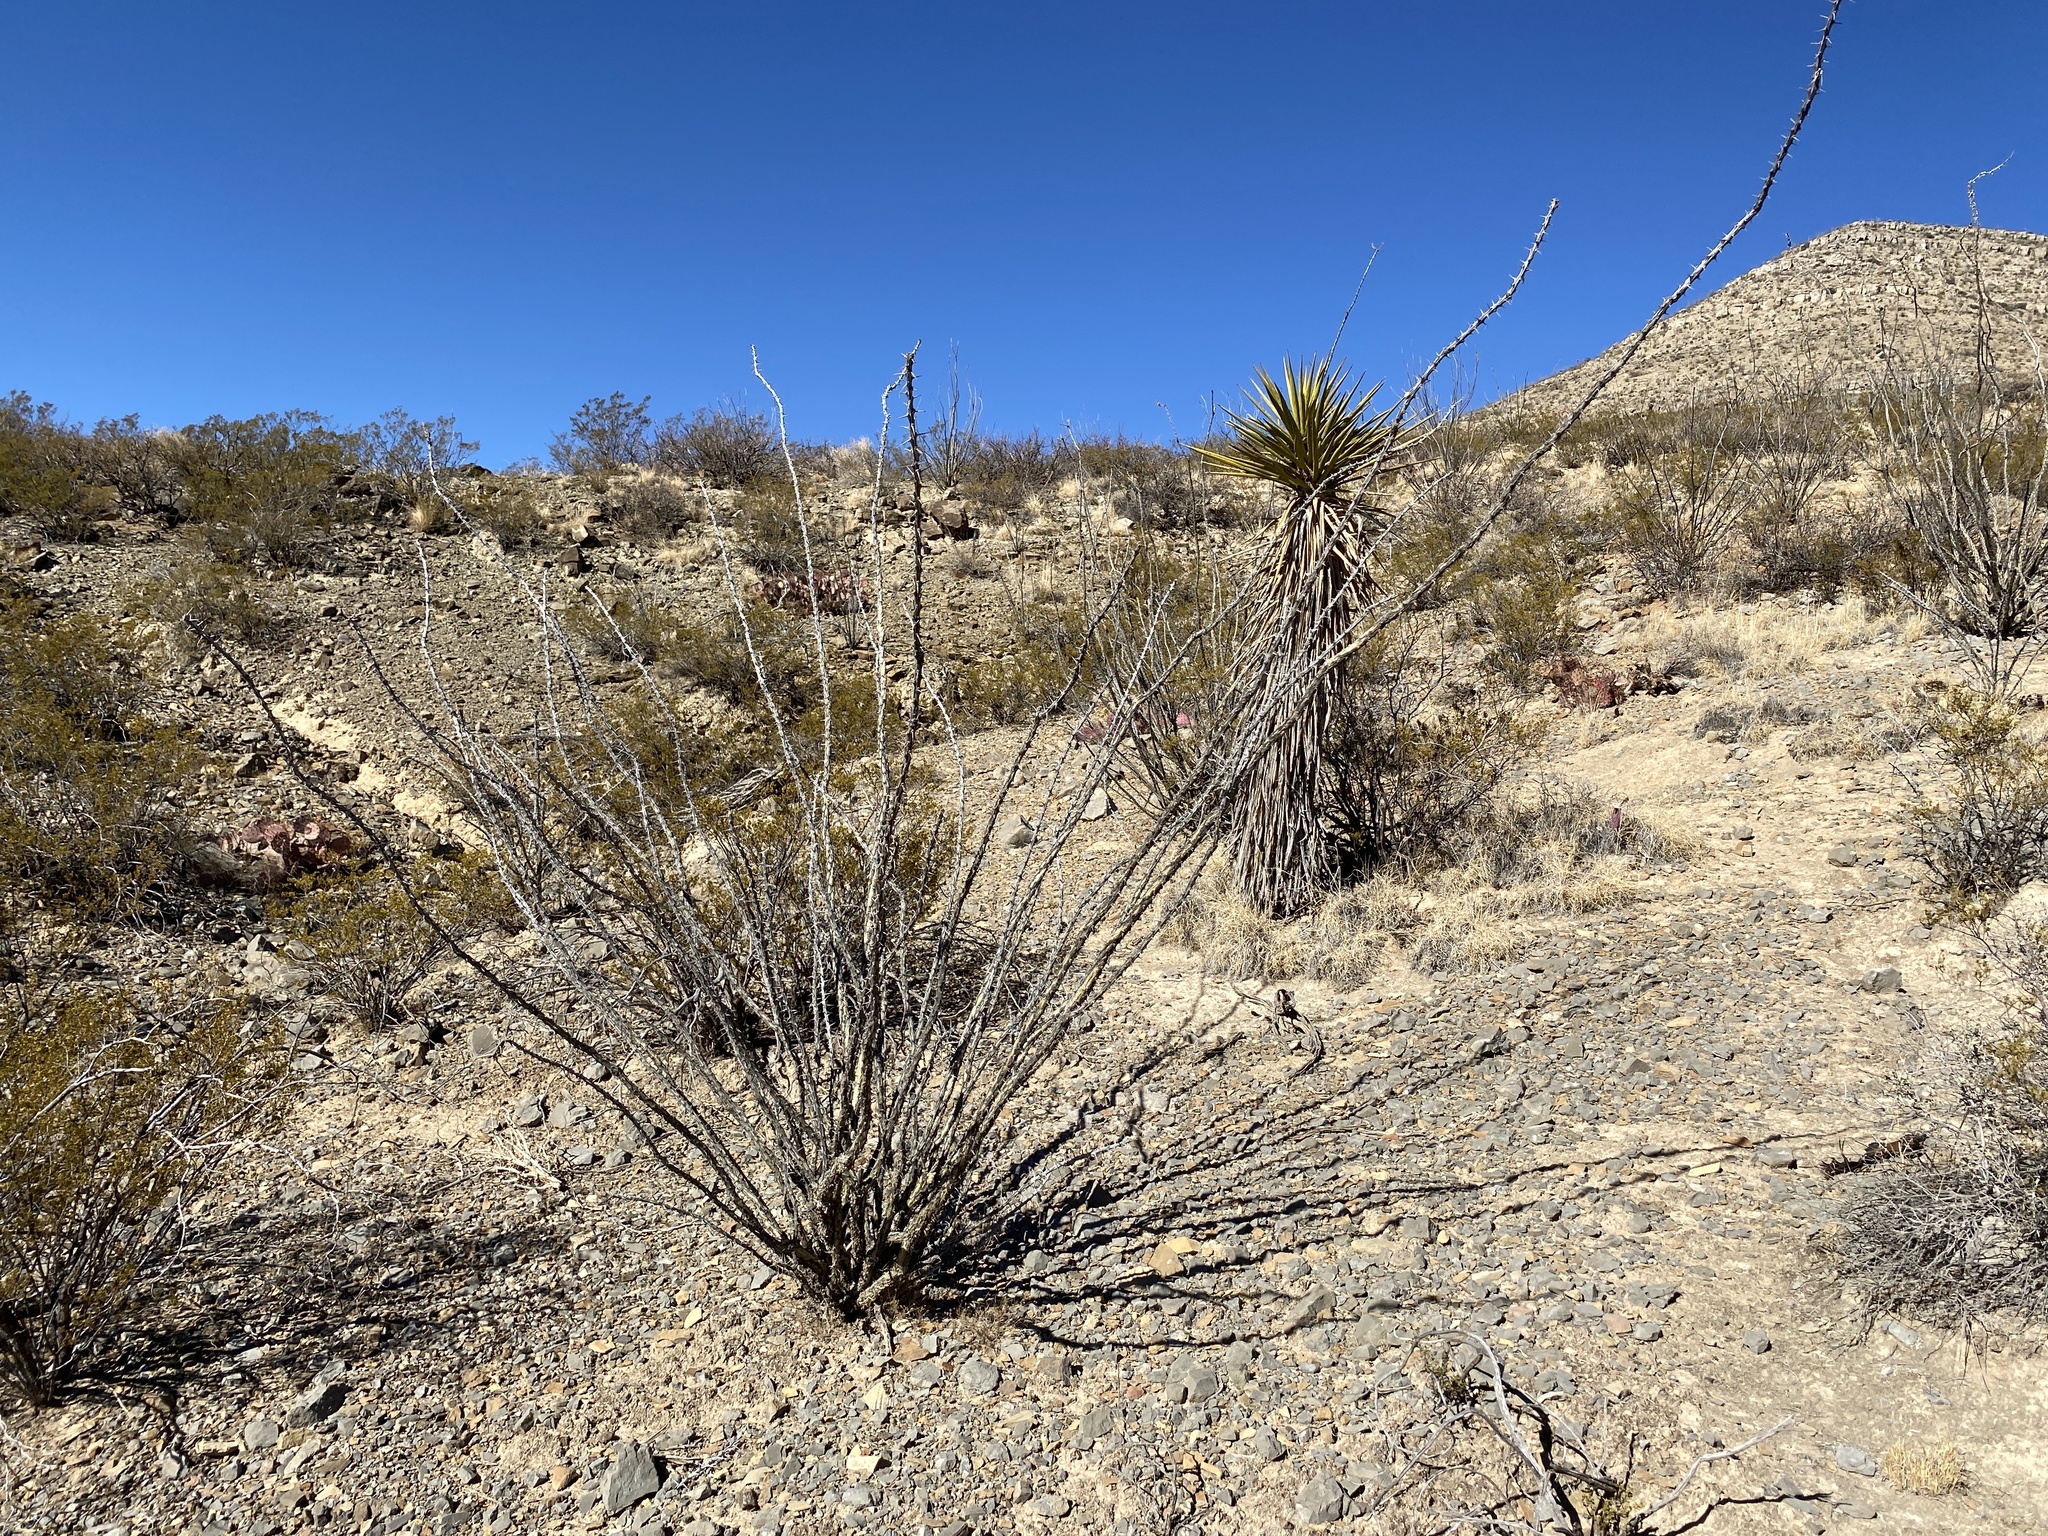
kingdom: Plantae
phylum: Tracheophyta
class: Magnoliopsida
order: Ericales
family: Fouquieriaceae
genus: Fouquieria
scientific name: Fouquieria splendens
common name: Vine-cactus
